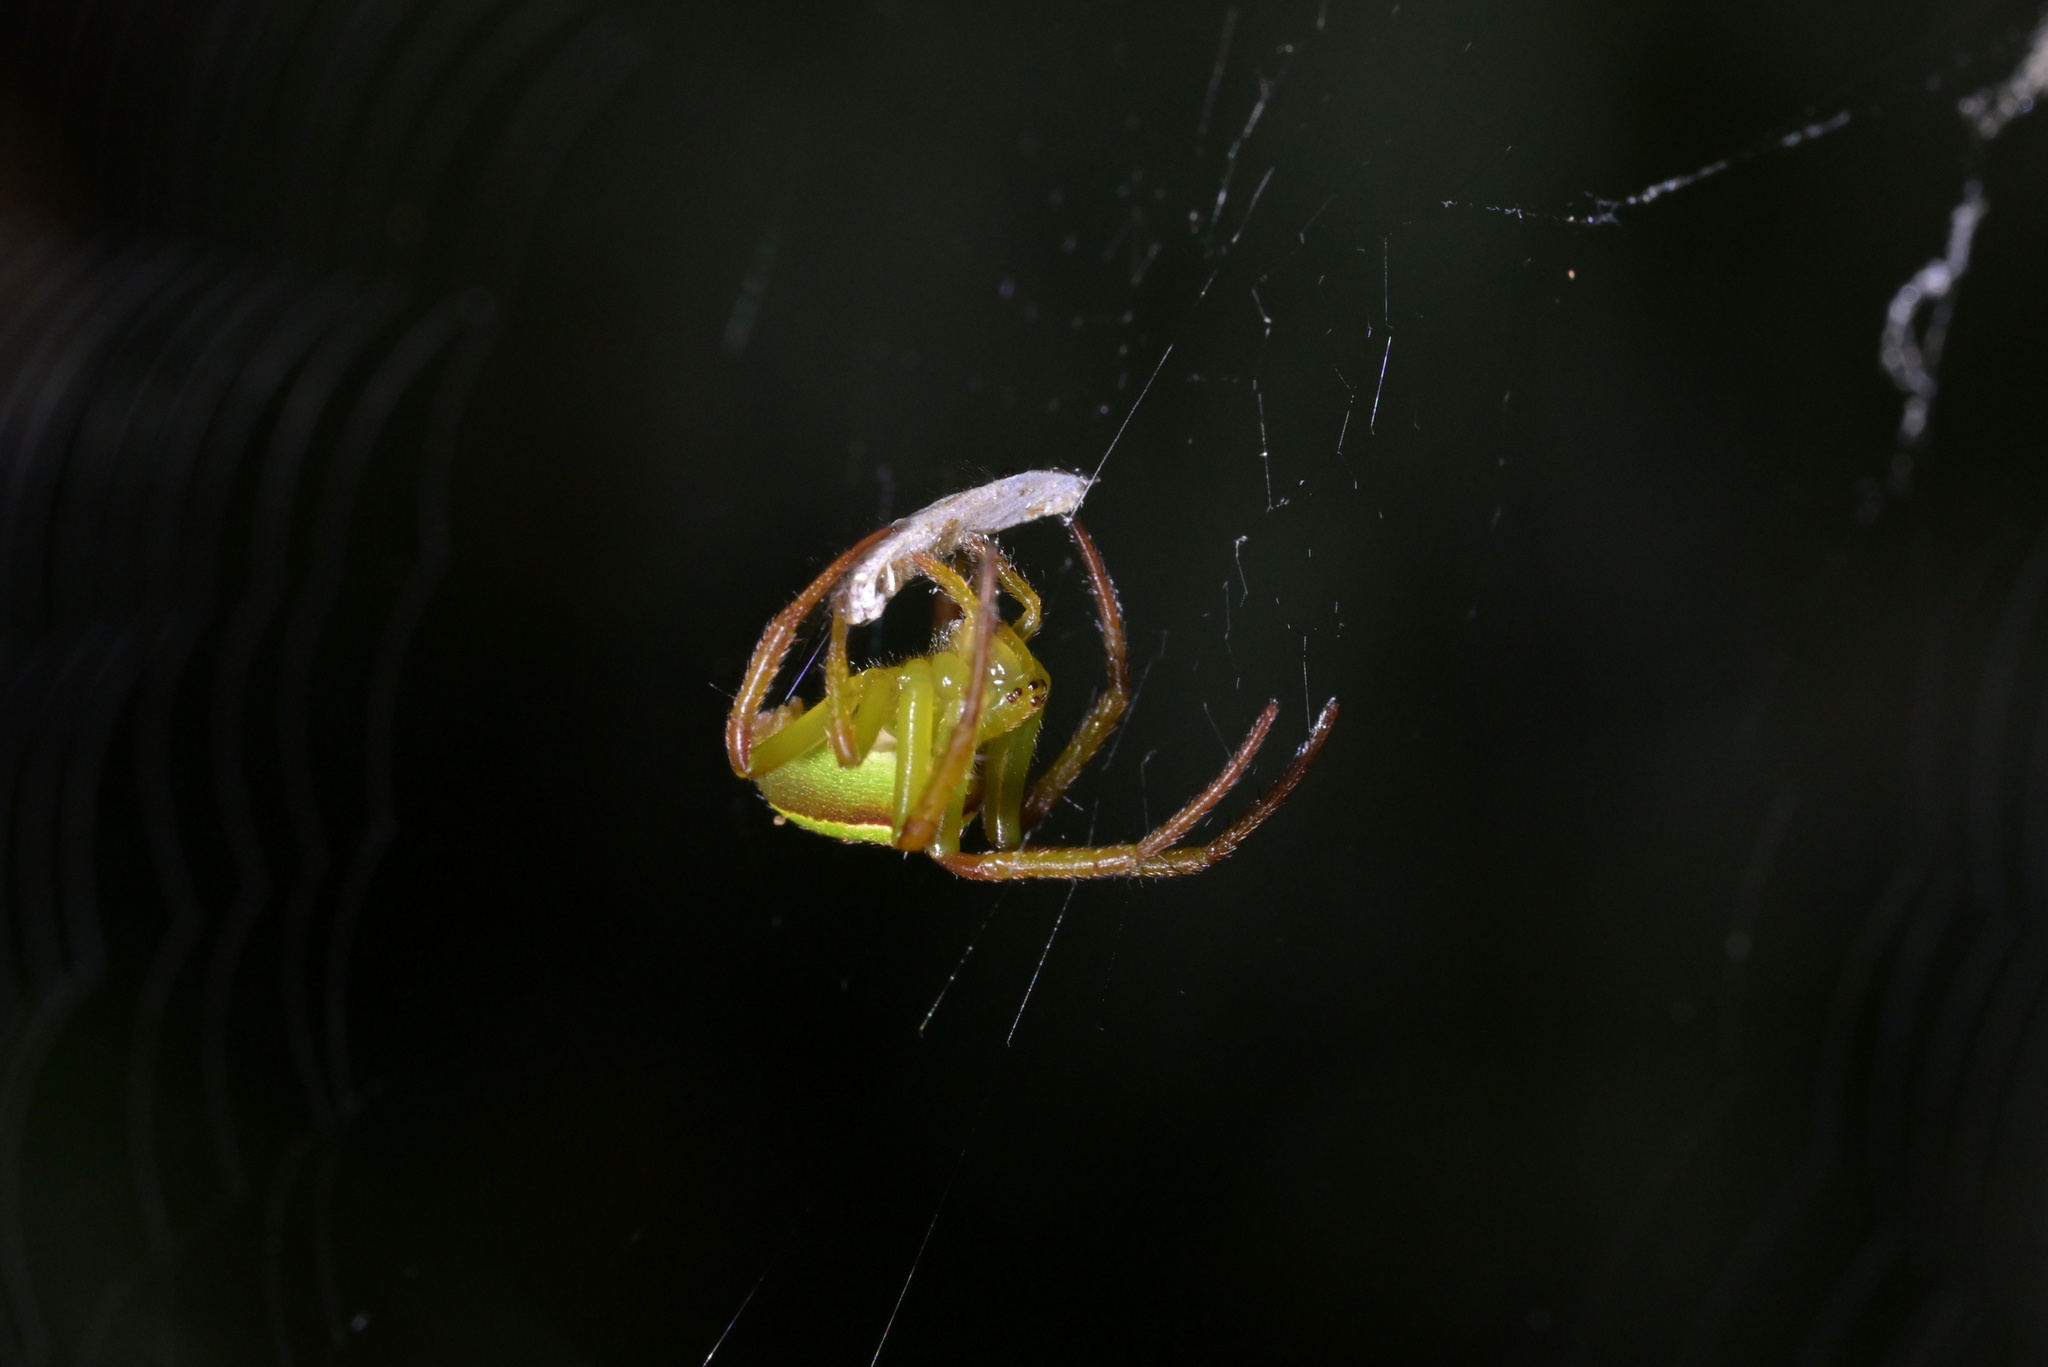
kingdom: Animalia
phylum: Arthropoda
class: Arachnida
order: Araneae
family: Araneidae
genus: Colaranea
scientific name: Colaranea viriditas
